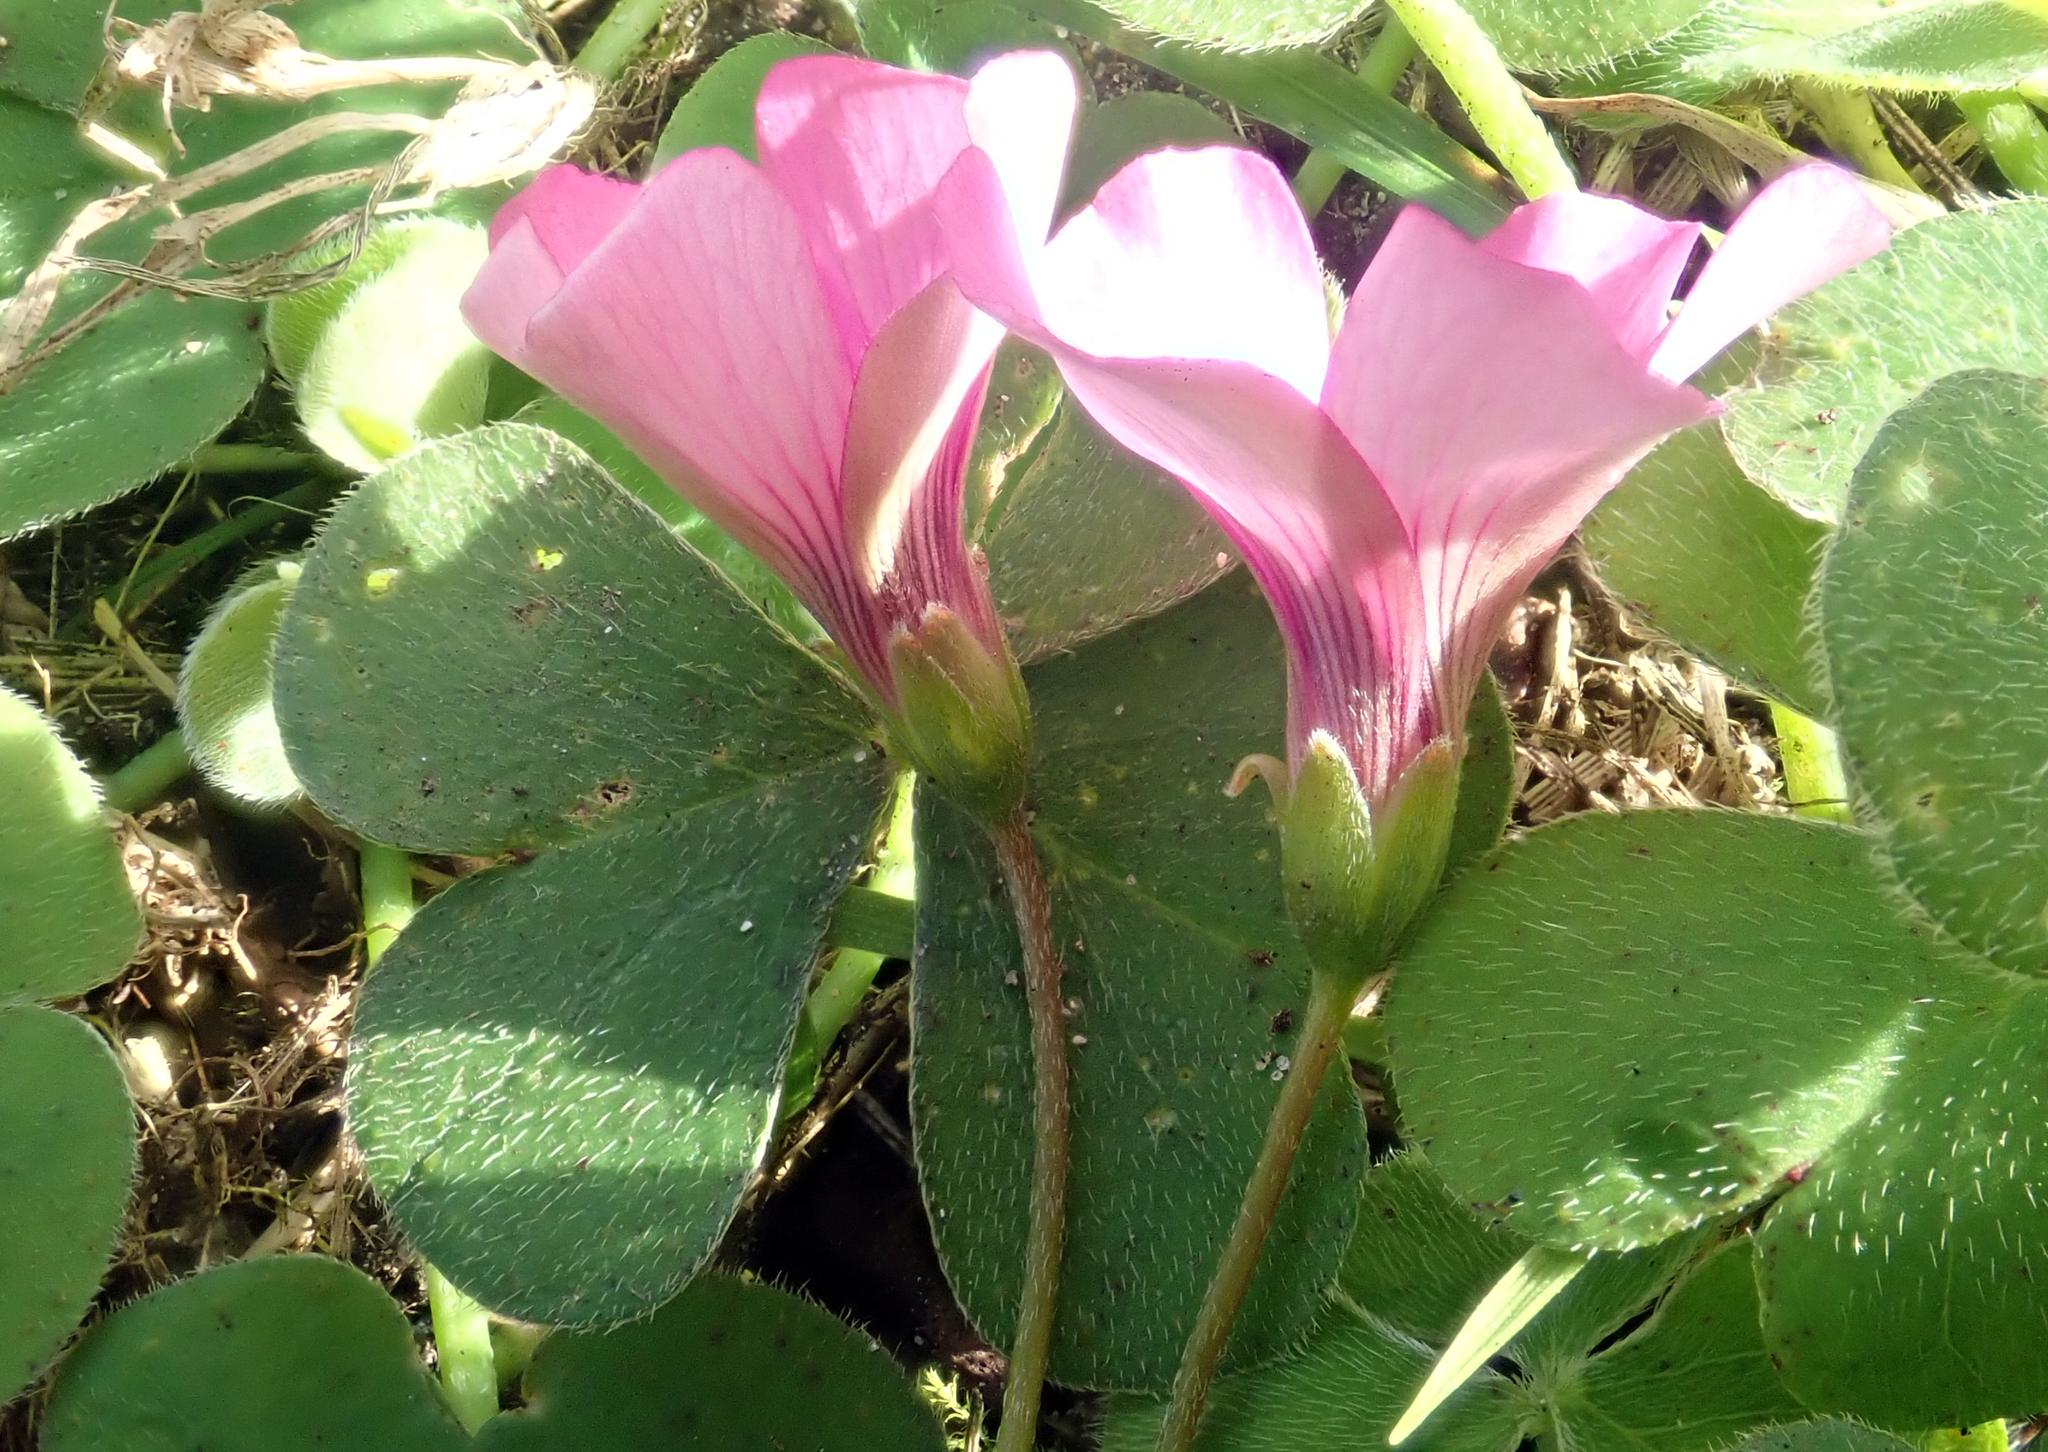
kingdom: Plantae
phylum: Tracheophyta
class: Magnoliopsida
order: Oxalidales
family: Oxalidaceae
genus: Oxalis
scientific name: Oxalis articulata
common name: Pink-sorrel
